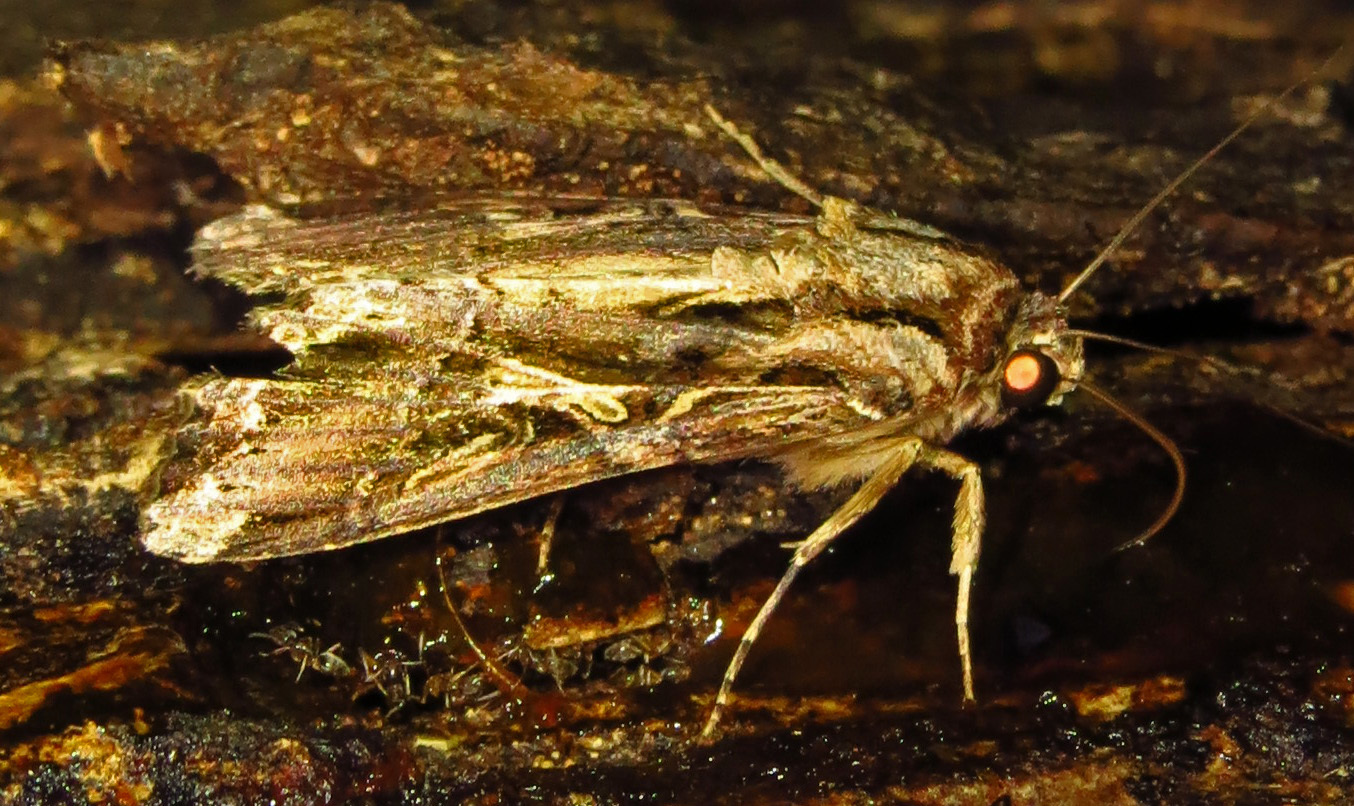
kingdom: Animalia
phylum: Arthropoda
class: Insecta
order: Lepidoptera
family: Noctuidae
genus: Spodoptera
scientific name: Spodoptera dolichos
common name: Sweetpotato armyworm
